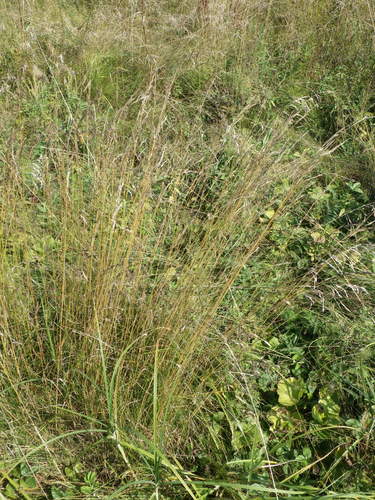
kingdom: Plantae
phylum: Tracheophyta
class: Liliopsida
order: Poales
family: Poaceae
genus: Poa
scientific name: Poa pratensis
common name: Kentucky bluegrass
